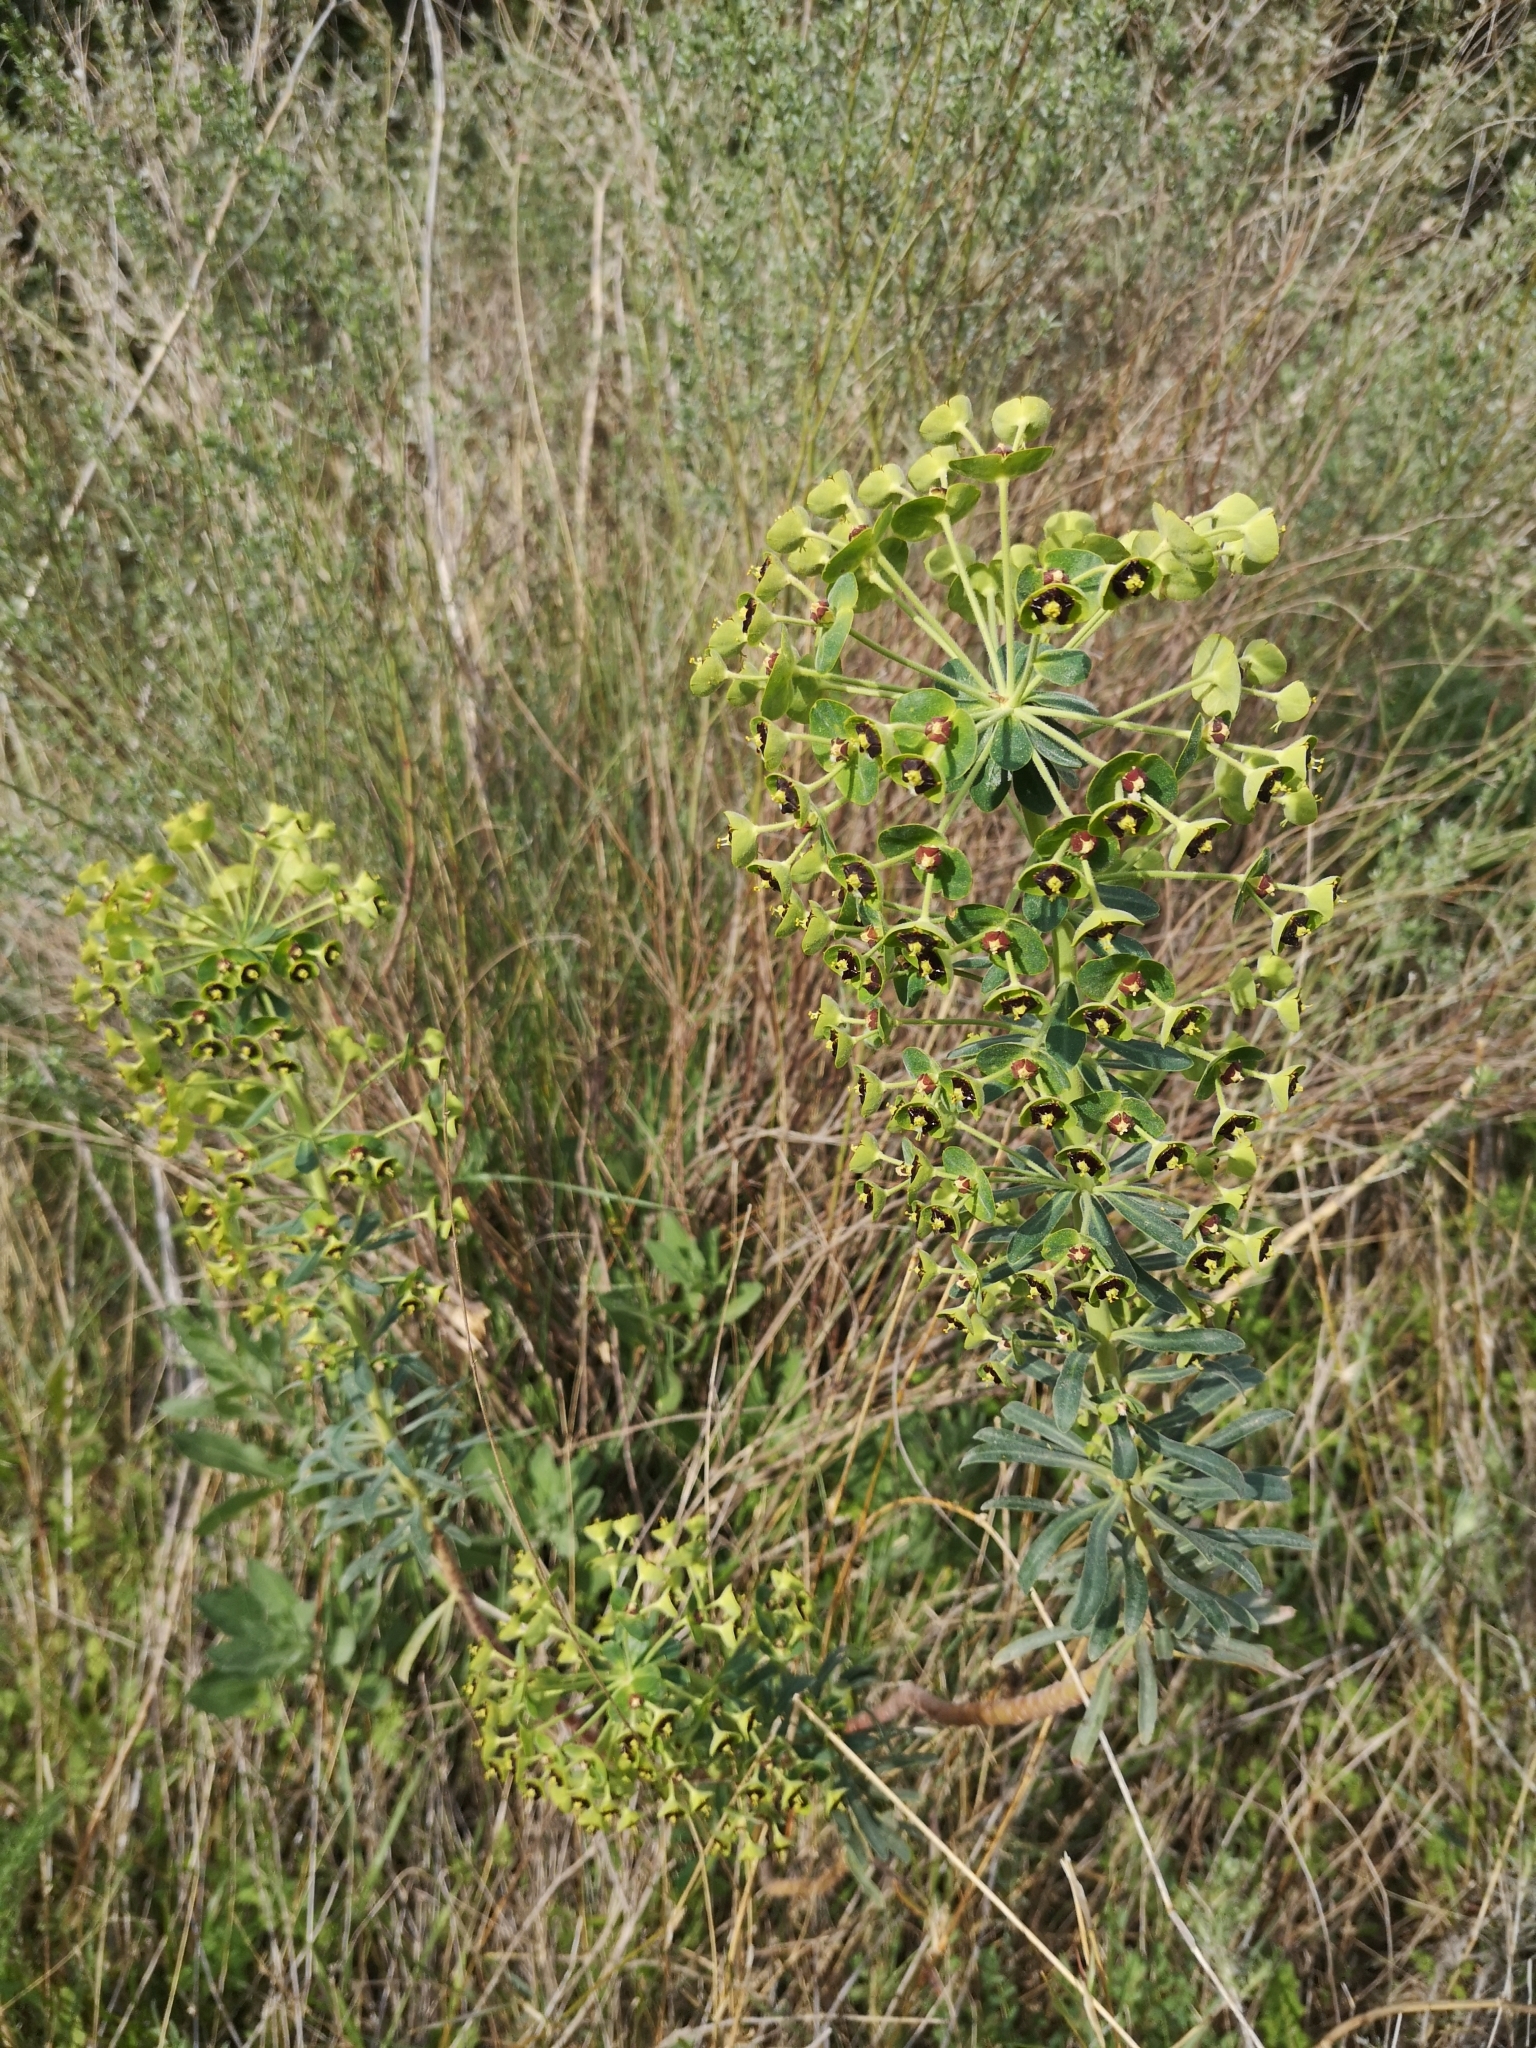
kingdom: Plantae
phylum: Tracheophyta
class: Magnoliopsida
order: Malpighiales
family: Euphorbiaceae
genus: Euphorbia
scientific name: Euphorbia characias
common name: Mediterranean spurge
